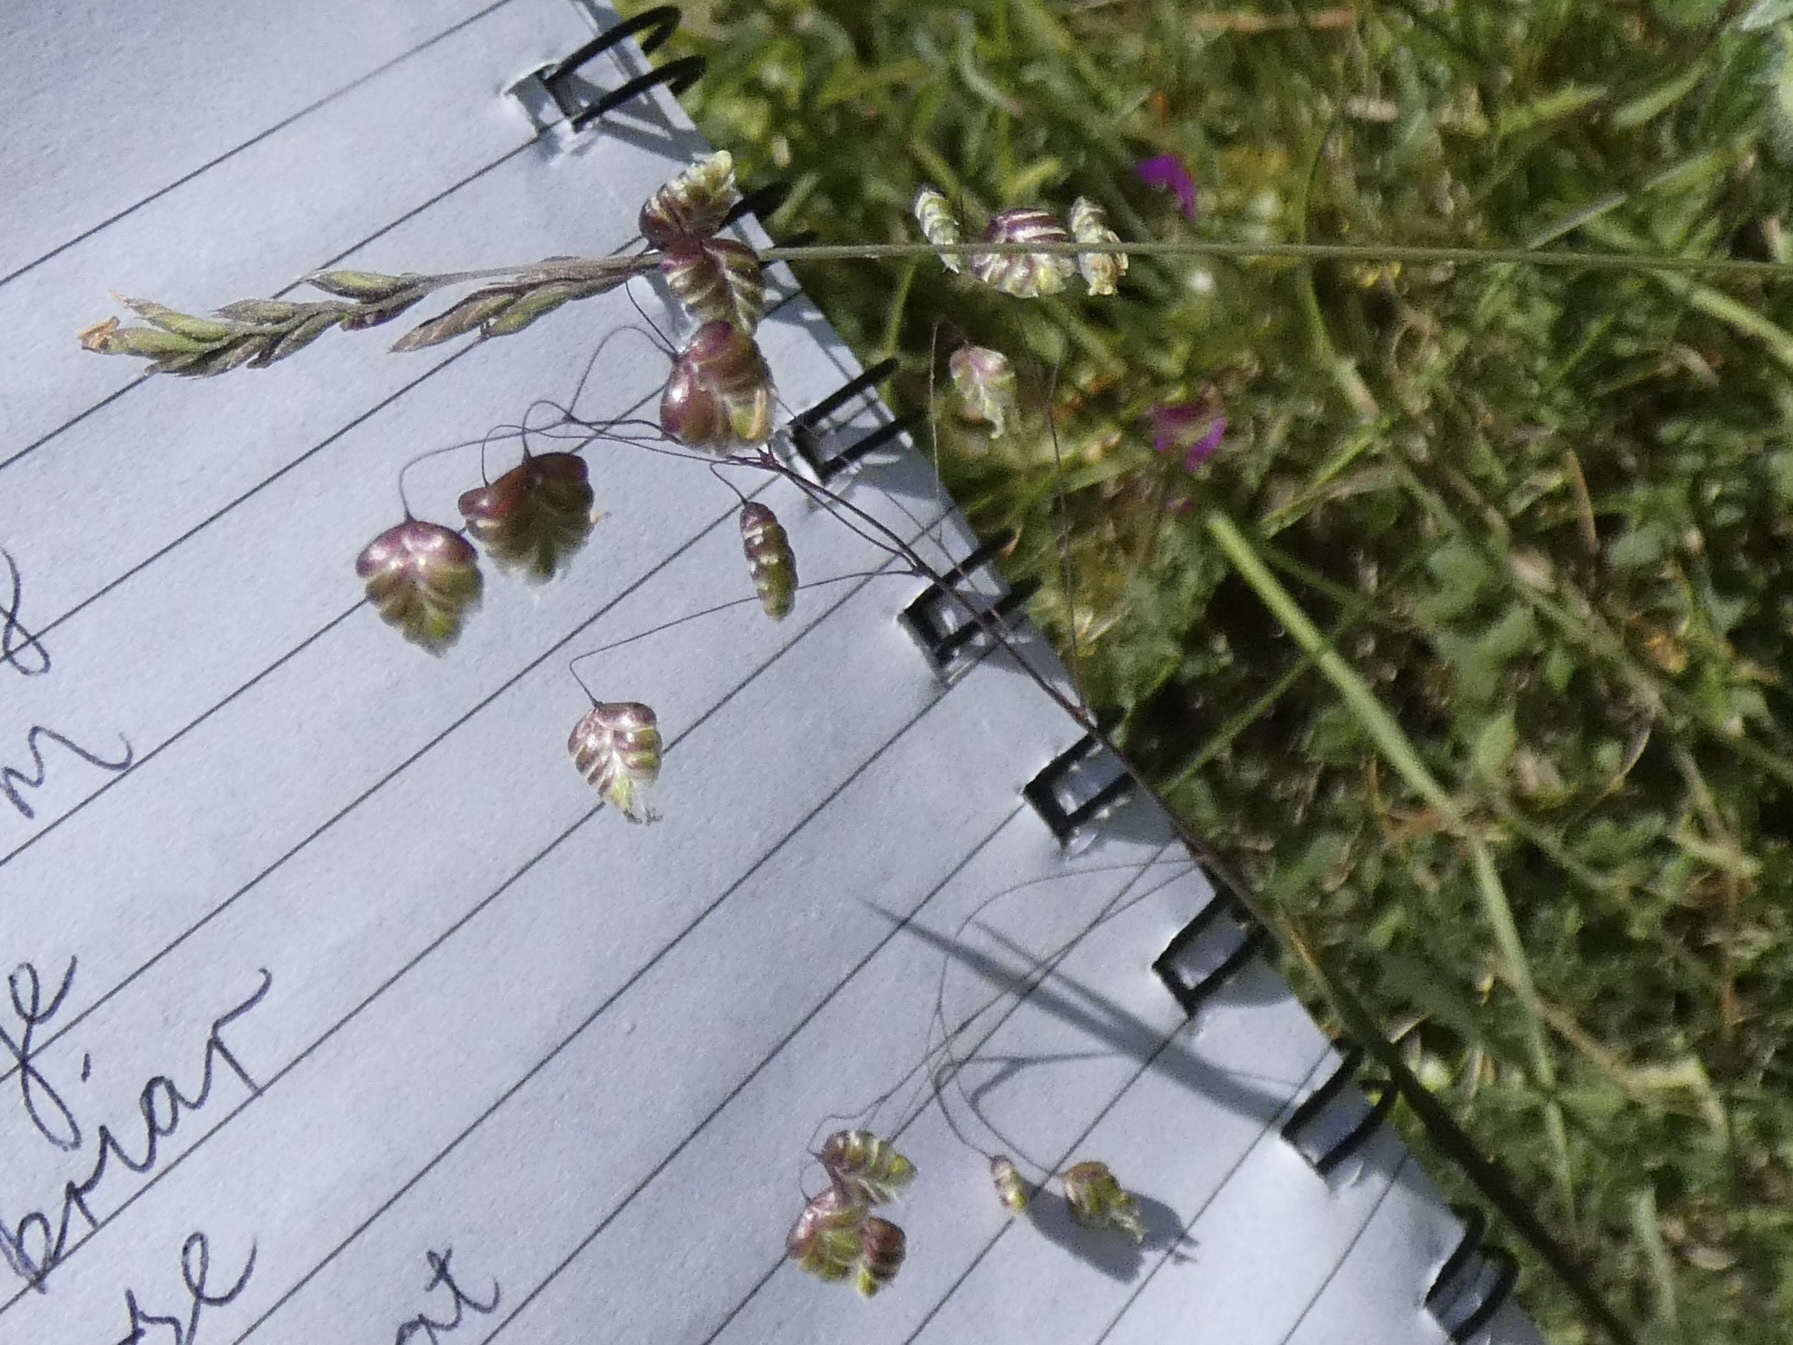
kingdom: Plantae
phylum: Tracheophyta
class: Liliopsida
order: Poales
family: Poaceae
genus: Briza
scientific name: Briza media
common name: Quaking grass
